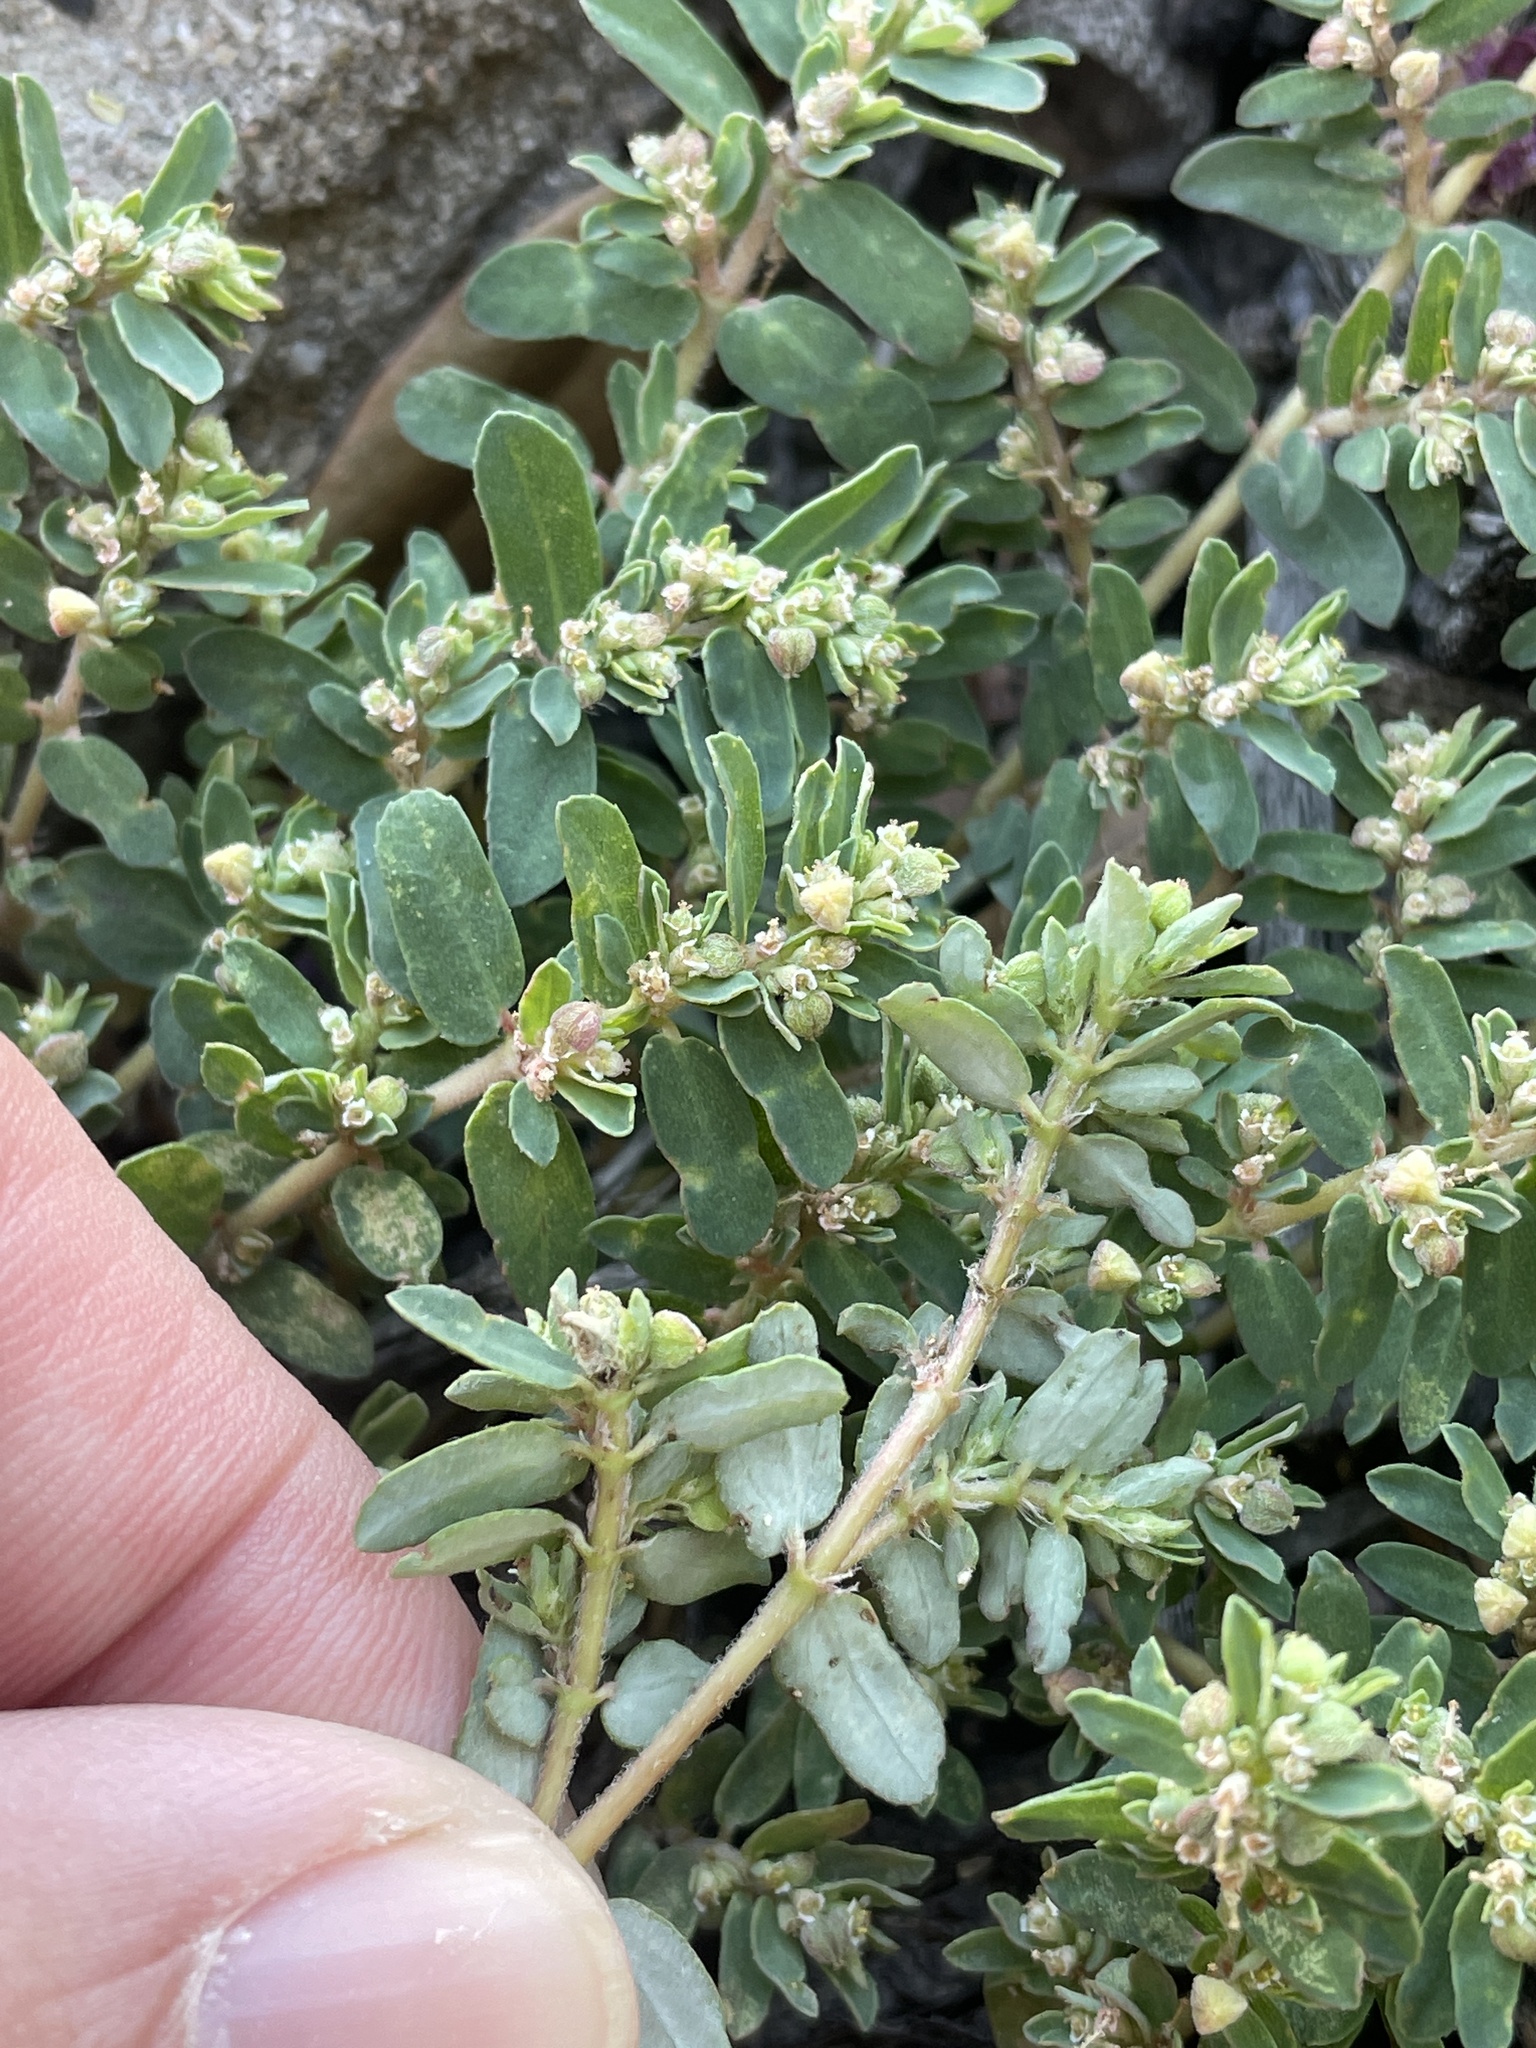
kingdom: Plantae
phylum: Tracheophyta
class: Magnoliopsida
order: Malpighiales
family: Euphorbiaceae
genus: Euphorbia
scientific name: Euphorbia maculata
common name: Spotted spurge
